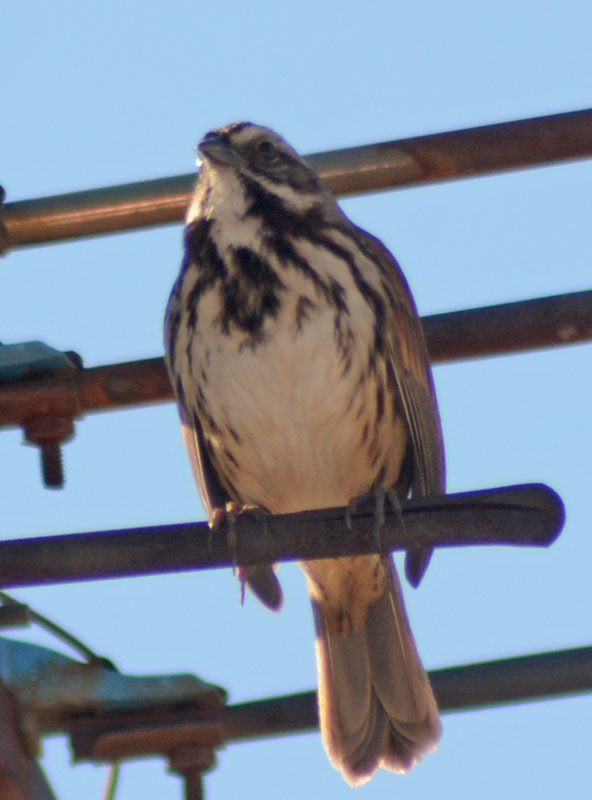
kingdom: Animalia
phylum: Chordata
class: Aves
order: Passeriformes
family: Passerellidae
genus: Melospiza
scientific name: Melospiza melodia
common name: Song sparrow
